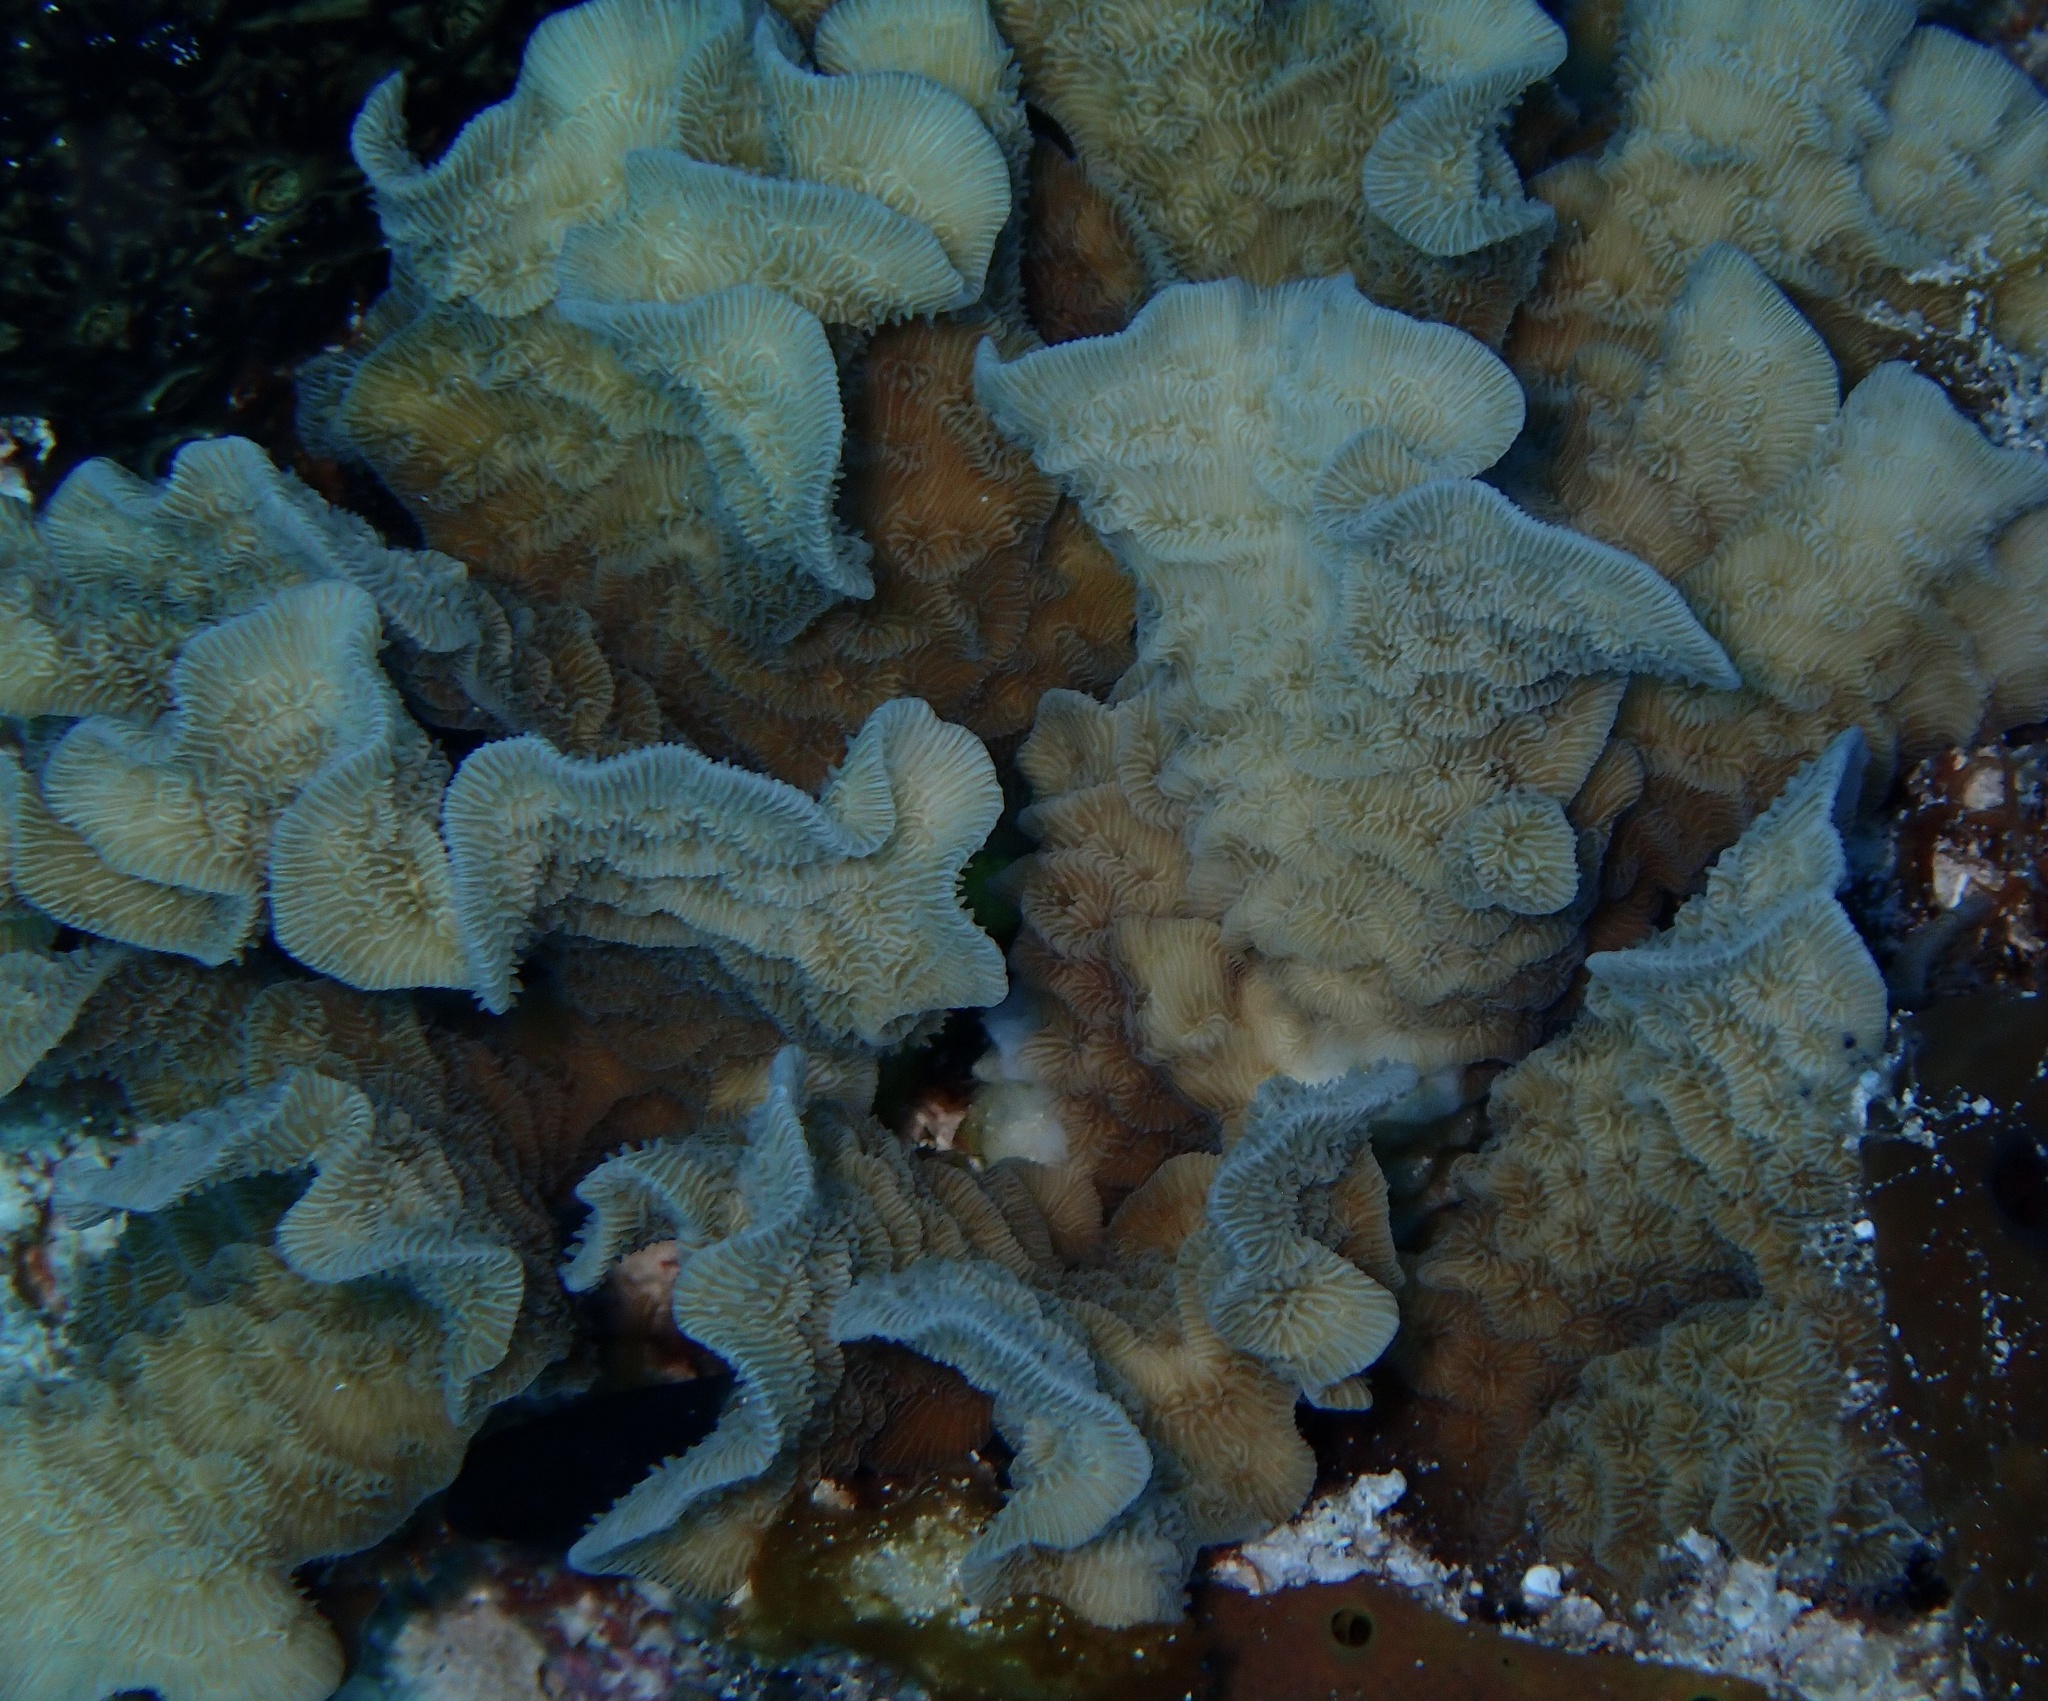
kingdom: Animalia
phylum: Cnidaria
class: Anthozoa
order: Scleractinia
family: Agariciidae
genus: Agaricia
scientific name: Agaricia tenuifolia
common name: Thin leaf lettuce coral
